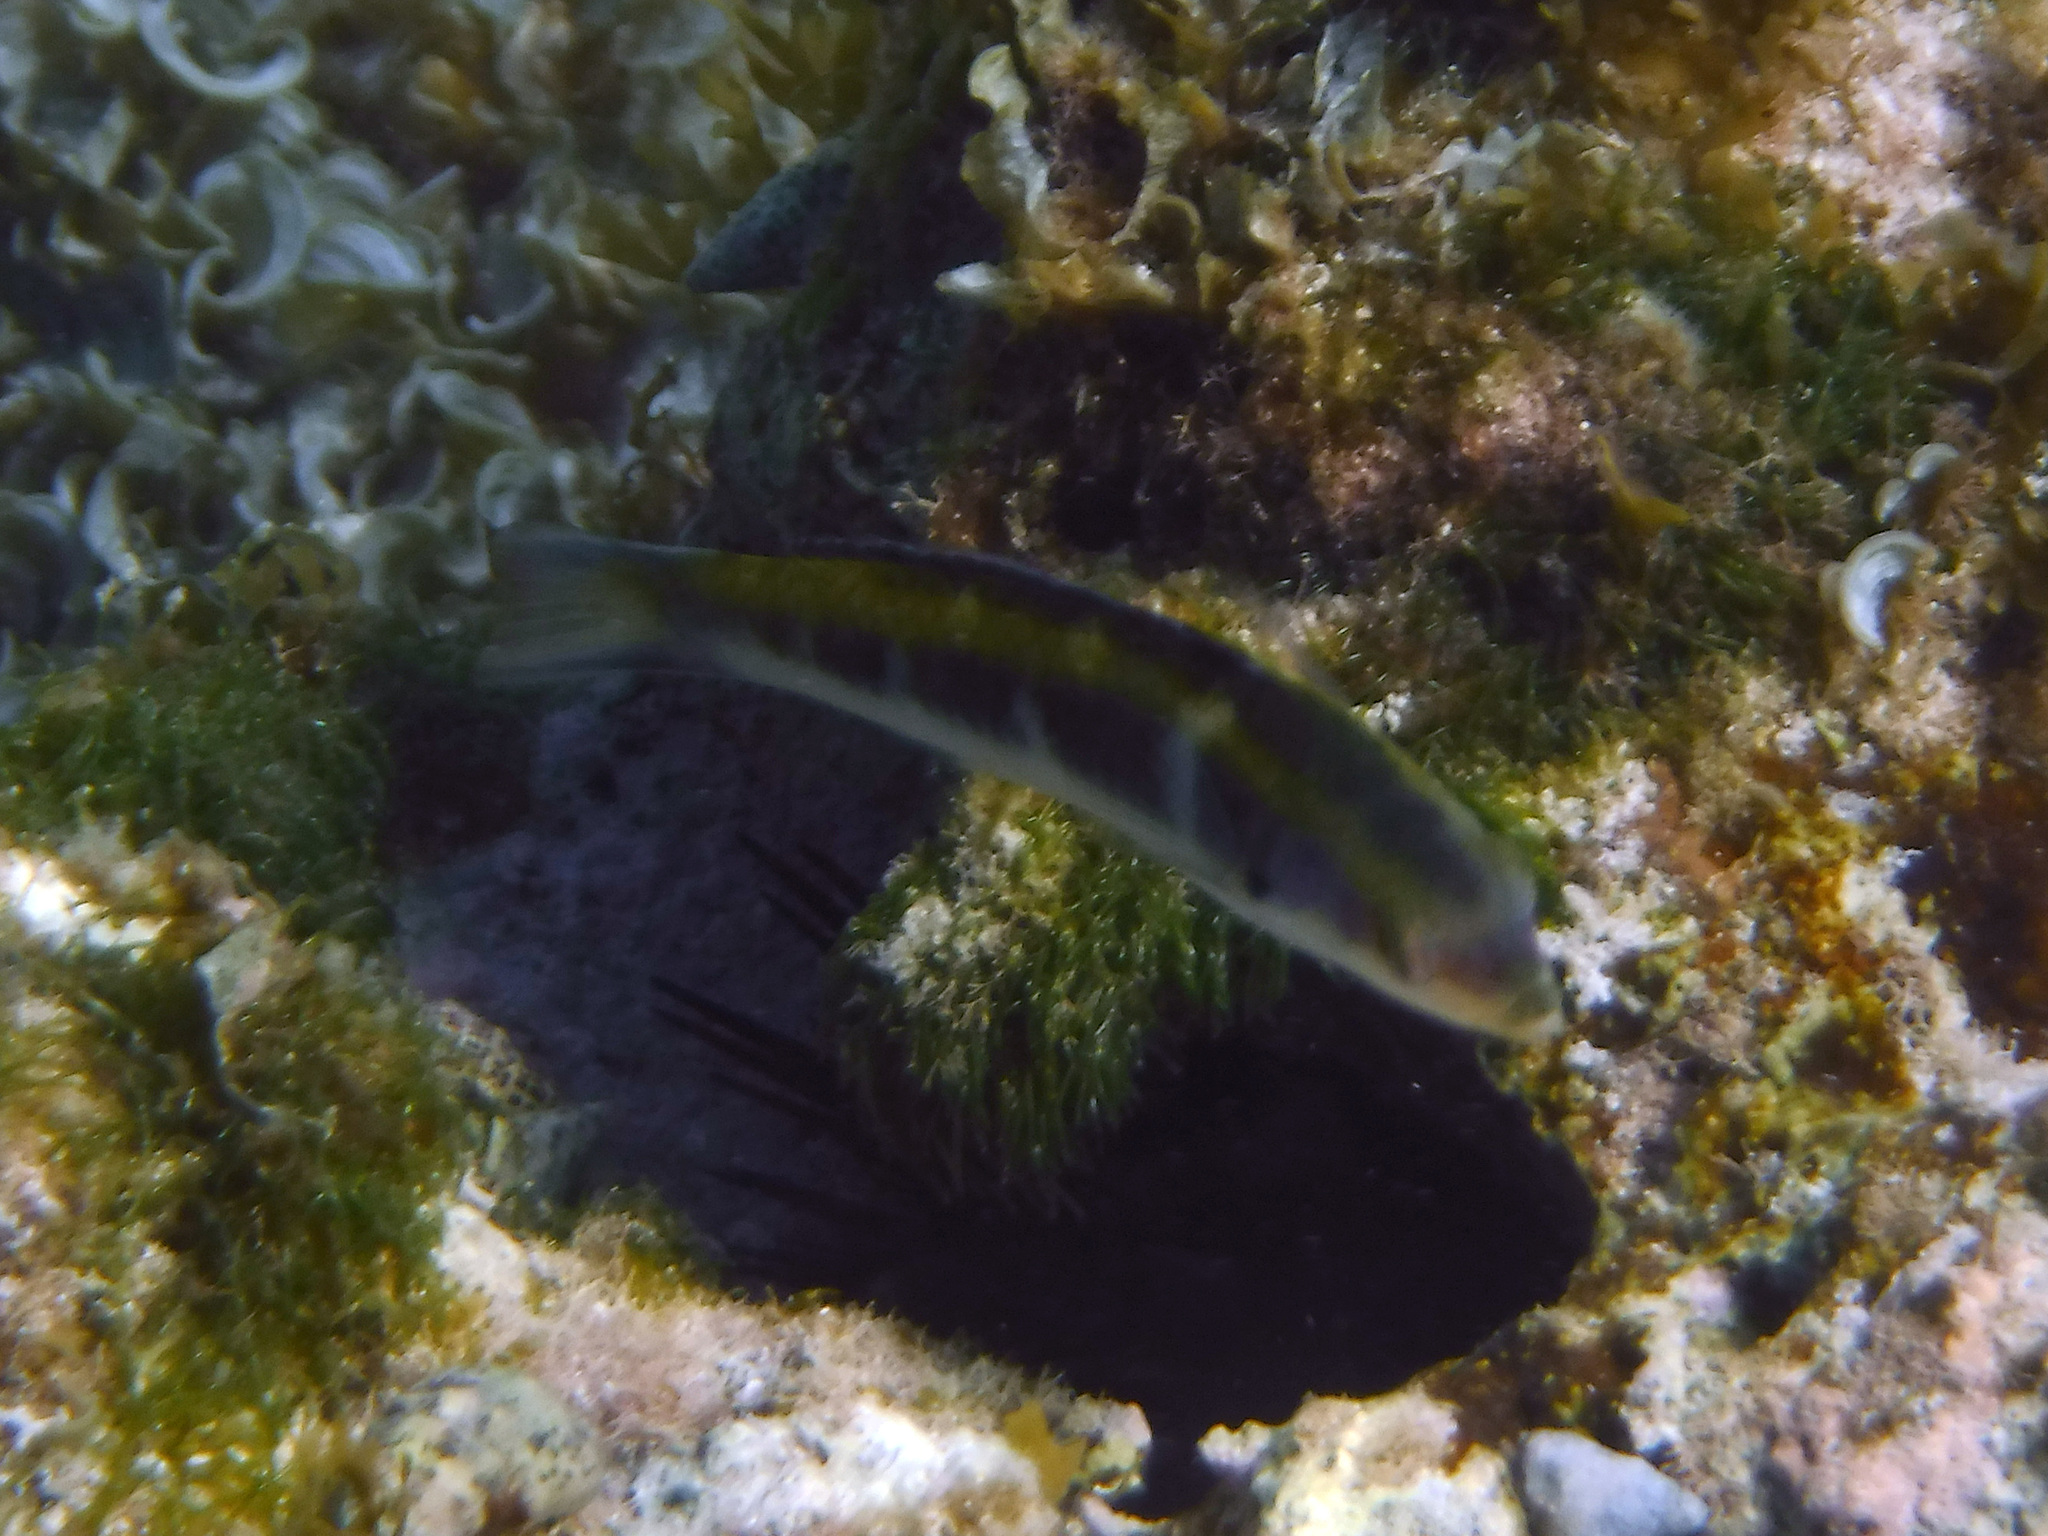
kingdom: Animalia
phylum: Chordata
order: Perciformes
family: Labridae
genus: Thalassoma
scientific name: Thalassoma bifasciatum
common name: Bluehead wrasse
